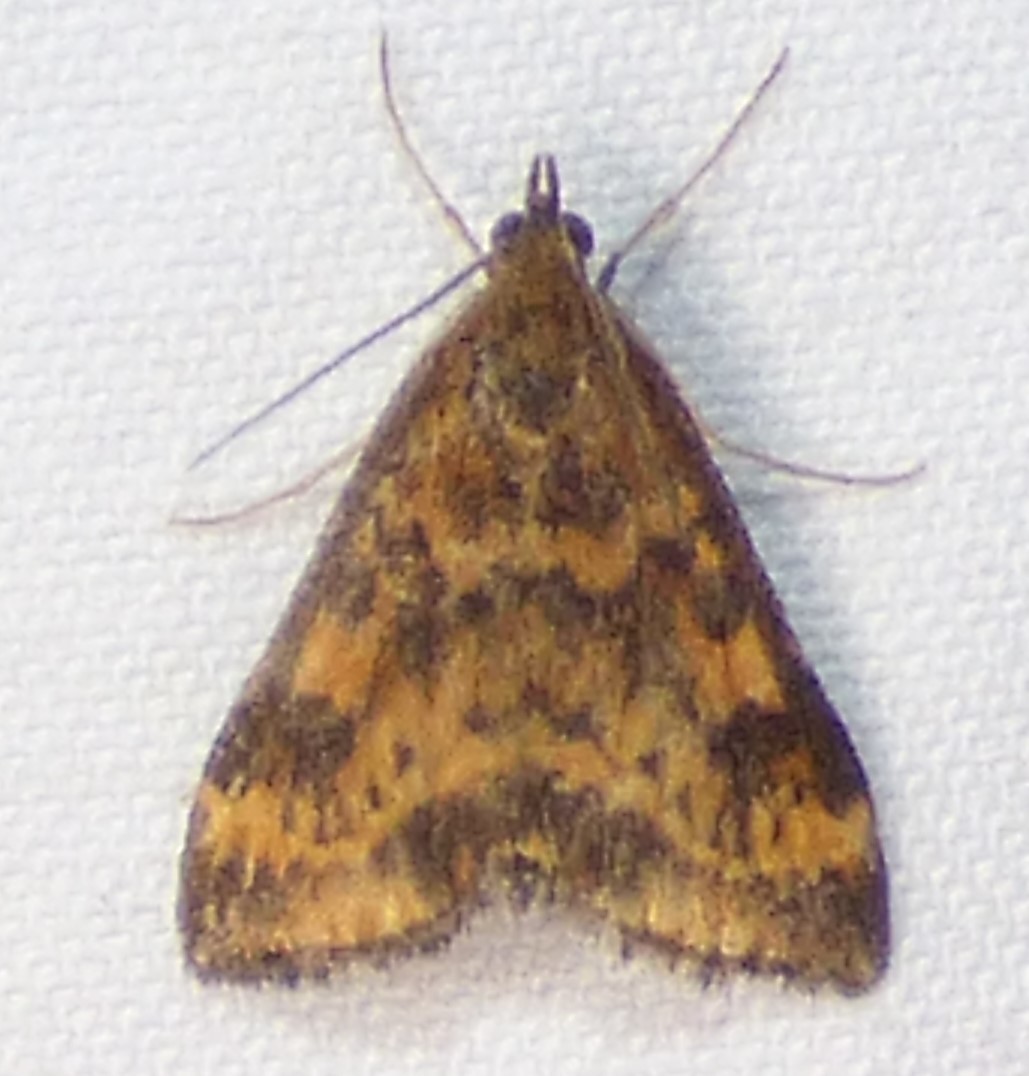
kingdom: Animalia
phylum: Arthropoda
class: Insecta
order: Lepidoptera
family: Crambidae
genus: Pyrausta
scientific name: Pyrausta subsequalis
